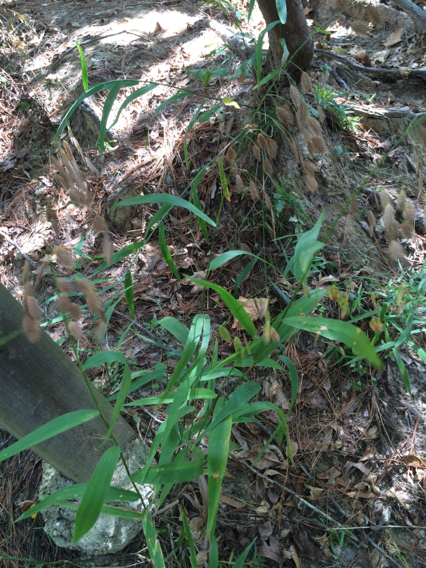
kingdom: Plantae
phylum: Tracheophyta
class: Liliopsida
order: Poales
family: Poaceae
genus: Chasmanthium
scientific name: Chasmanthium latifolium
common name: Broad-leaved chasmanthium
